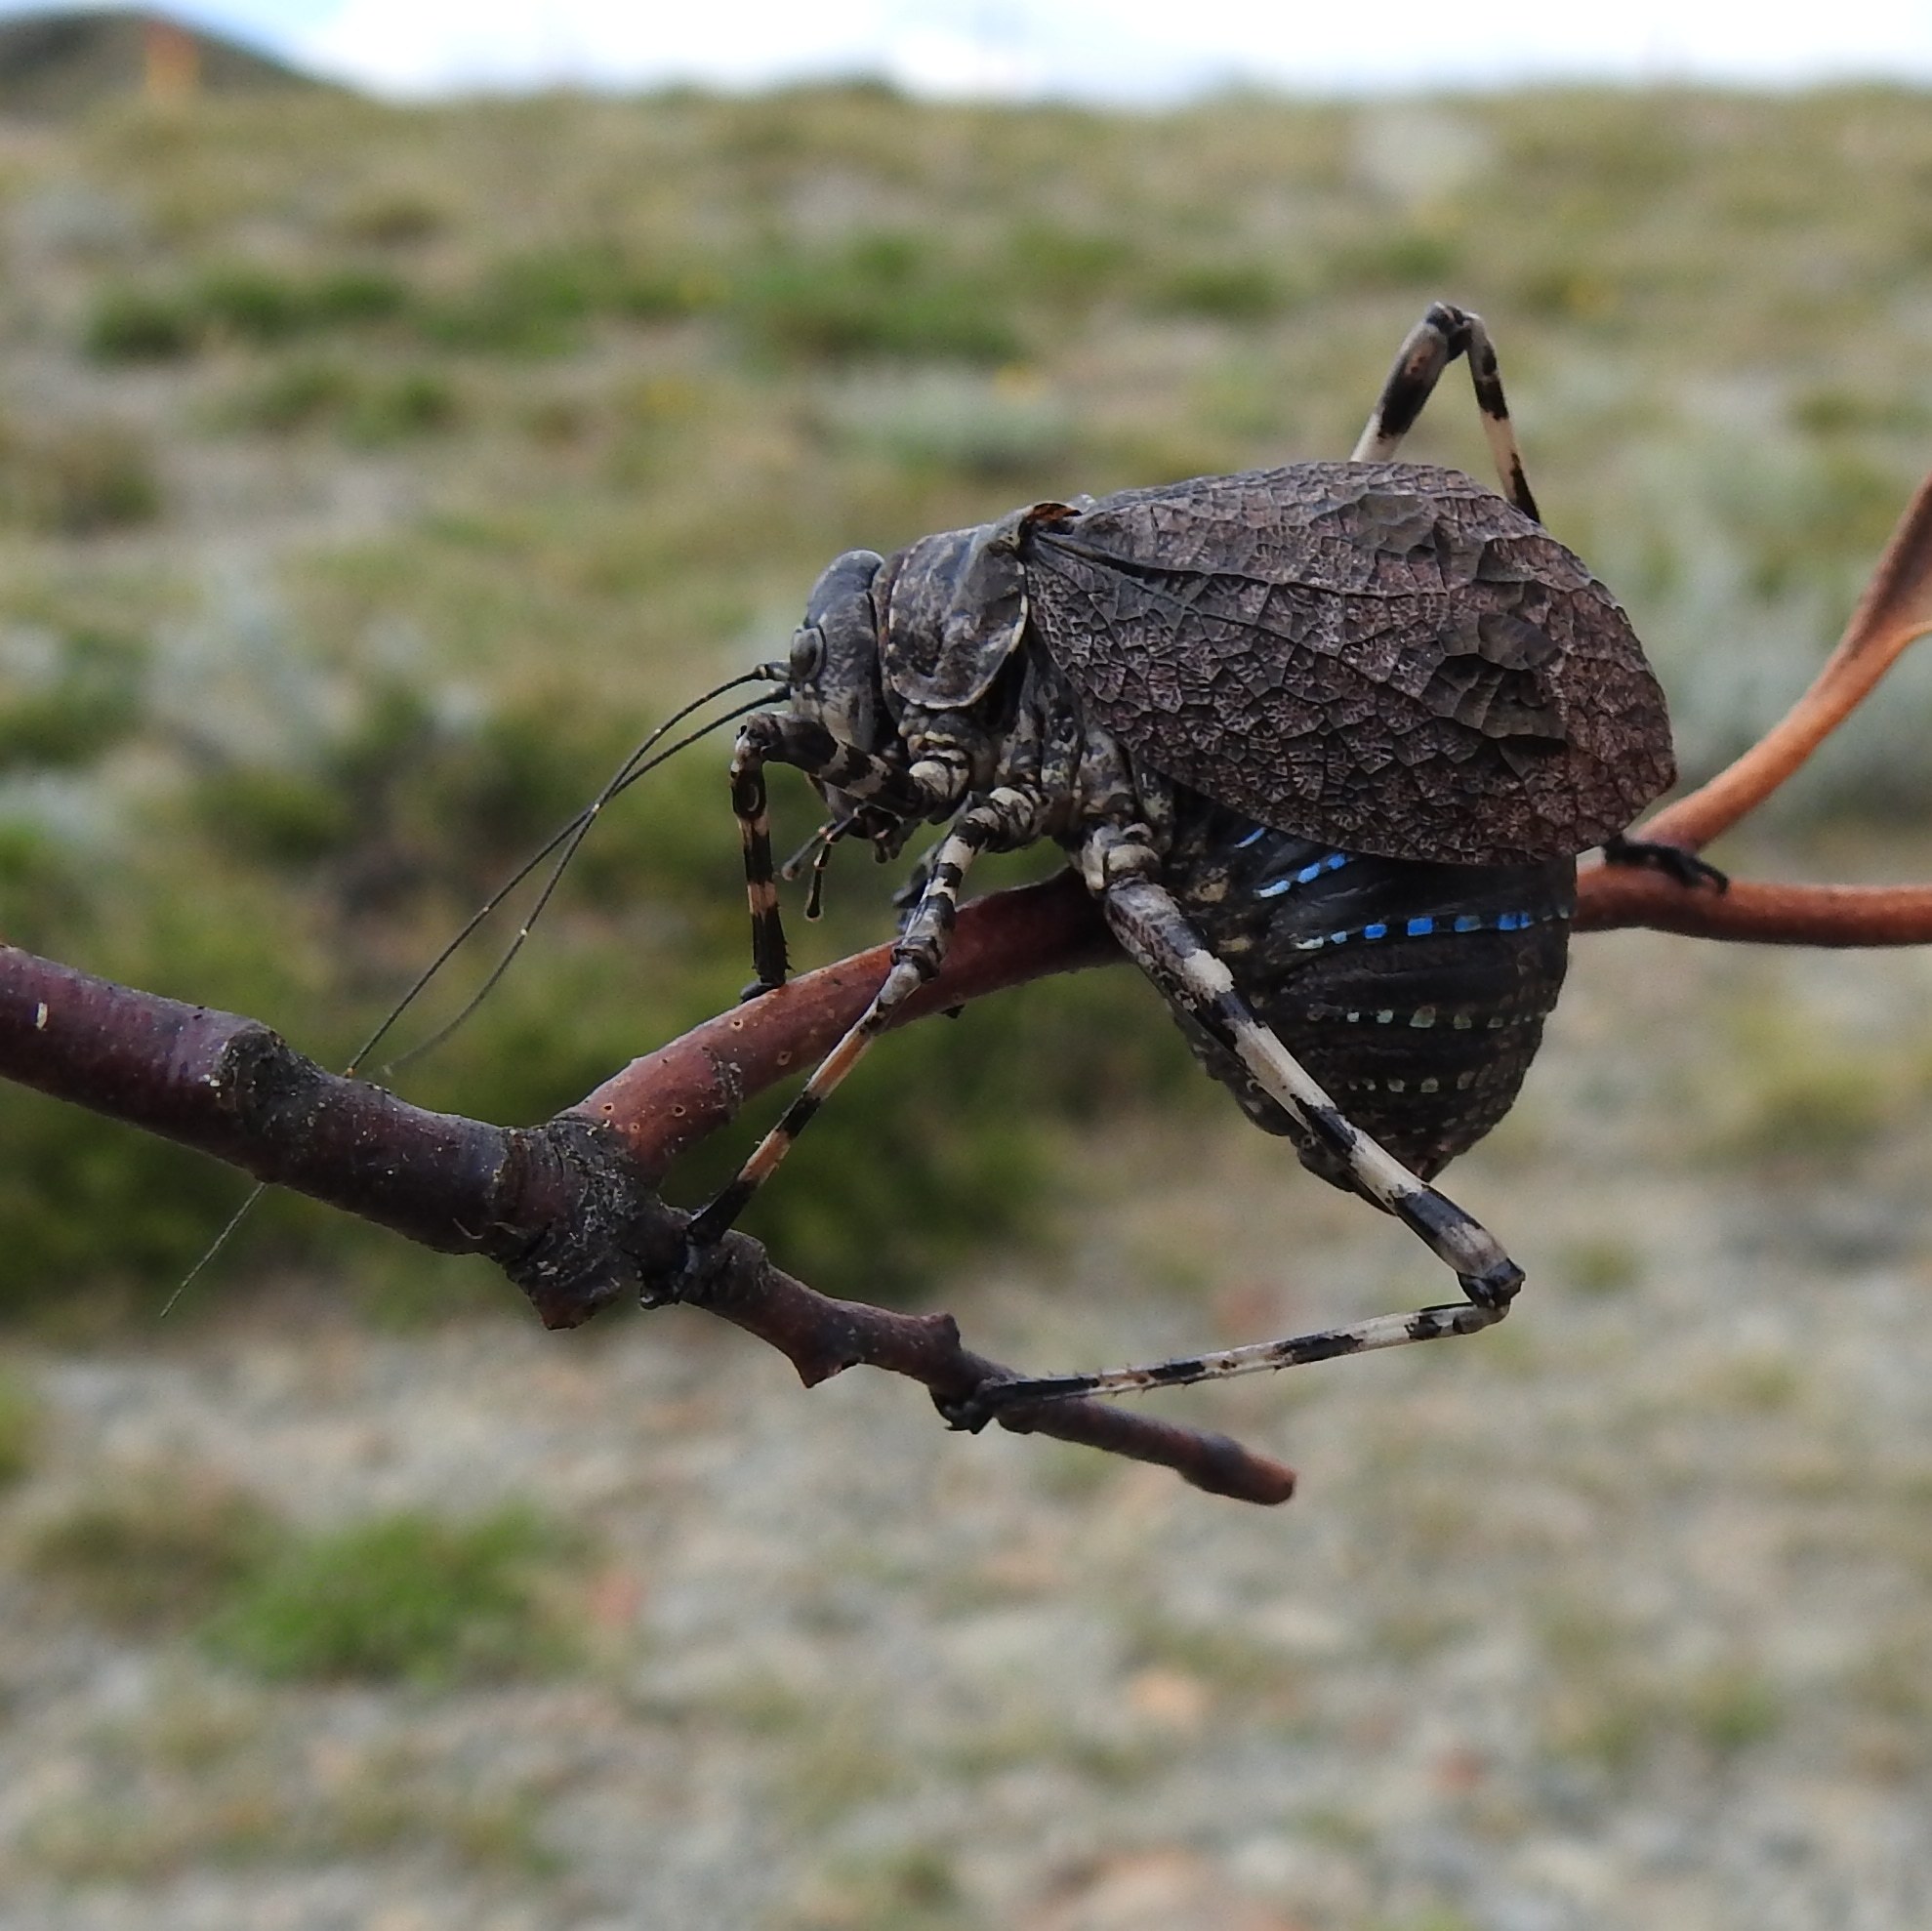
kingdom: Animalia
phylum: Arthropoda
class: Insecta
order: Orthoptera
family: Tettigoniidae
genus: Acripeza
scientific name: Acripeza reticulata
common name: Mountain katydid
